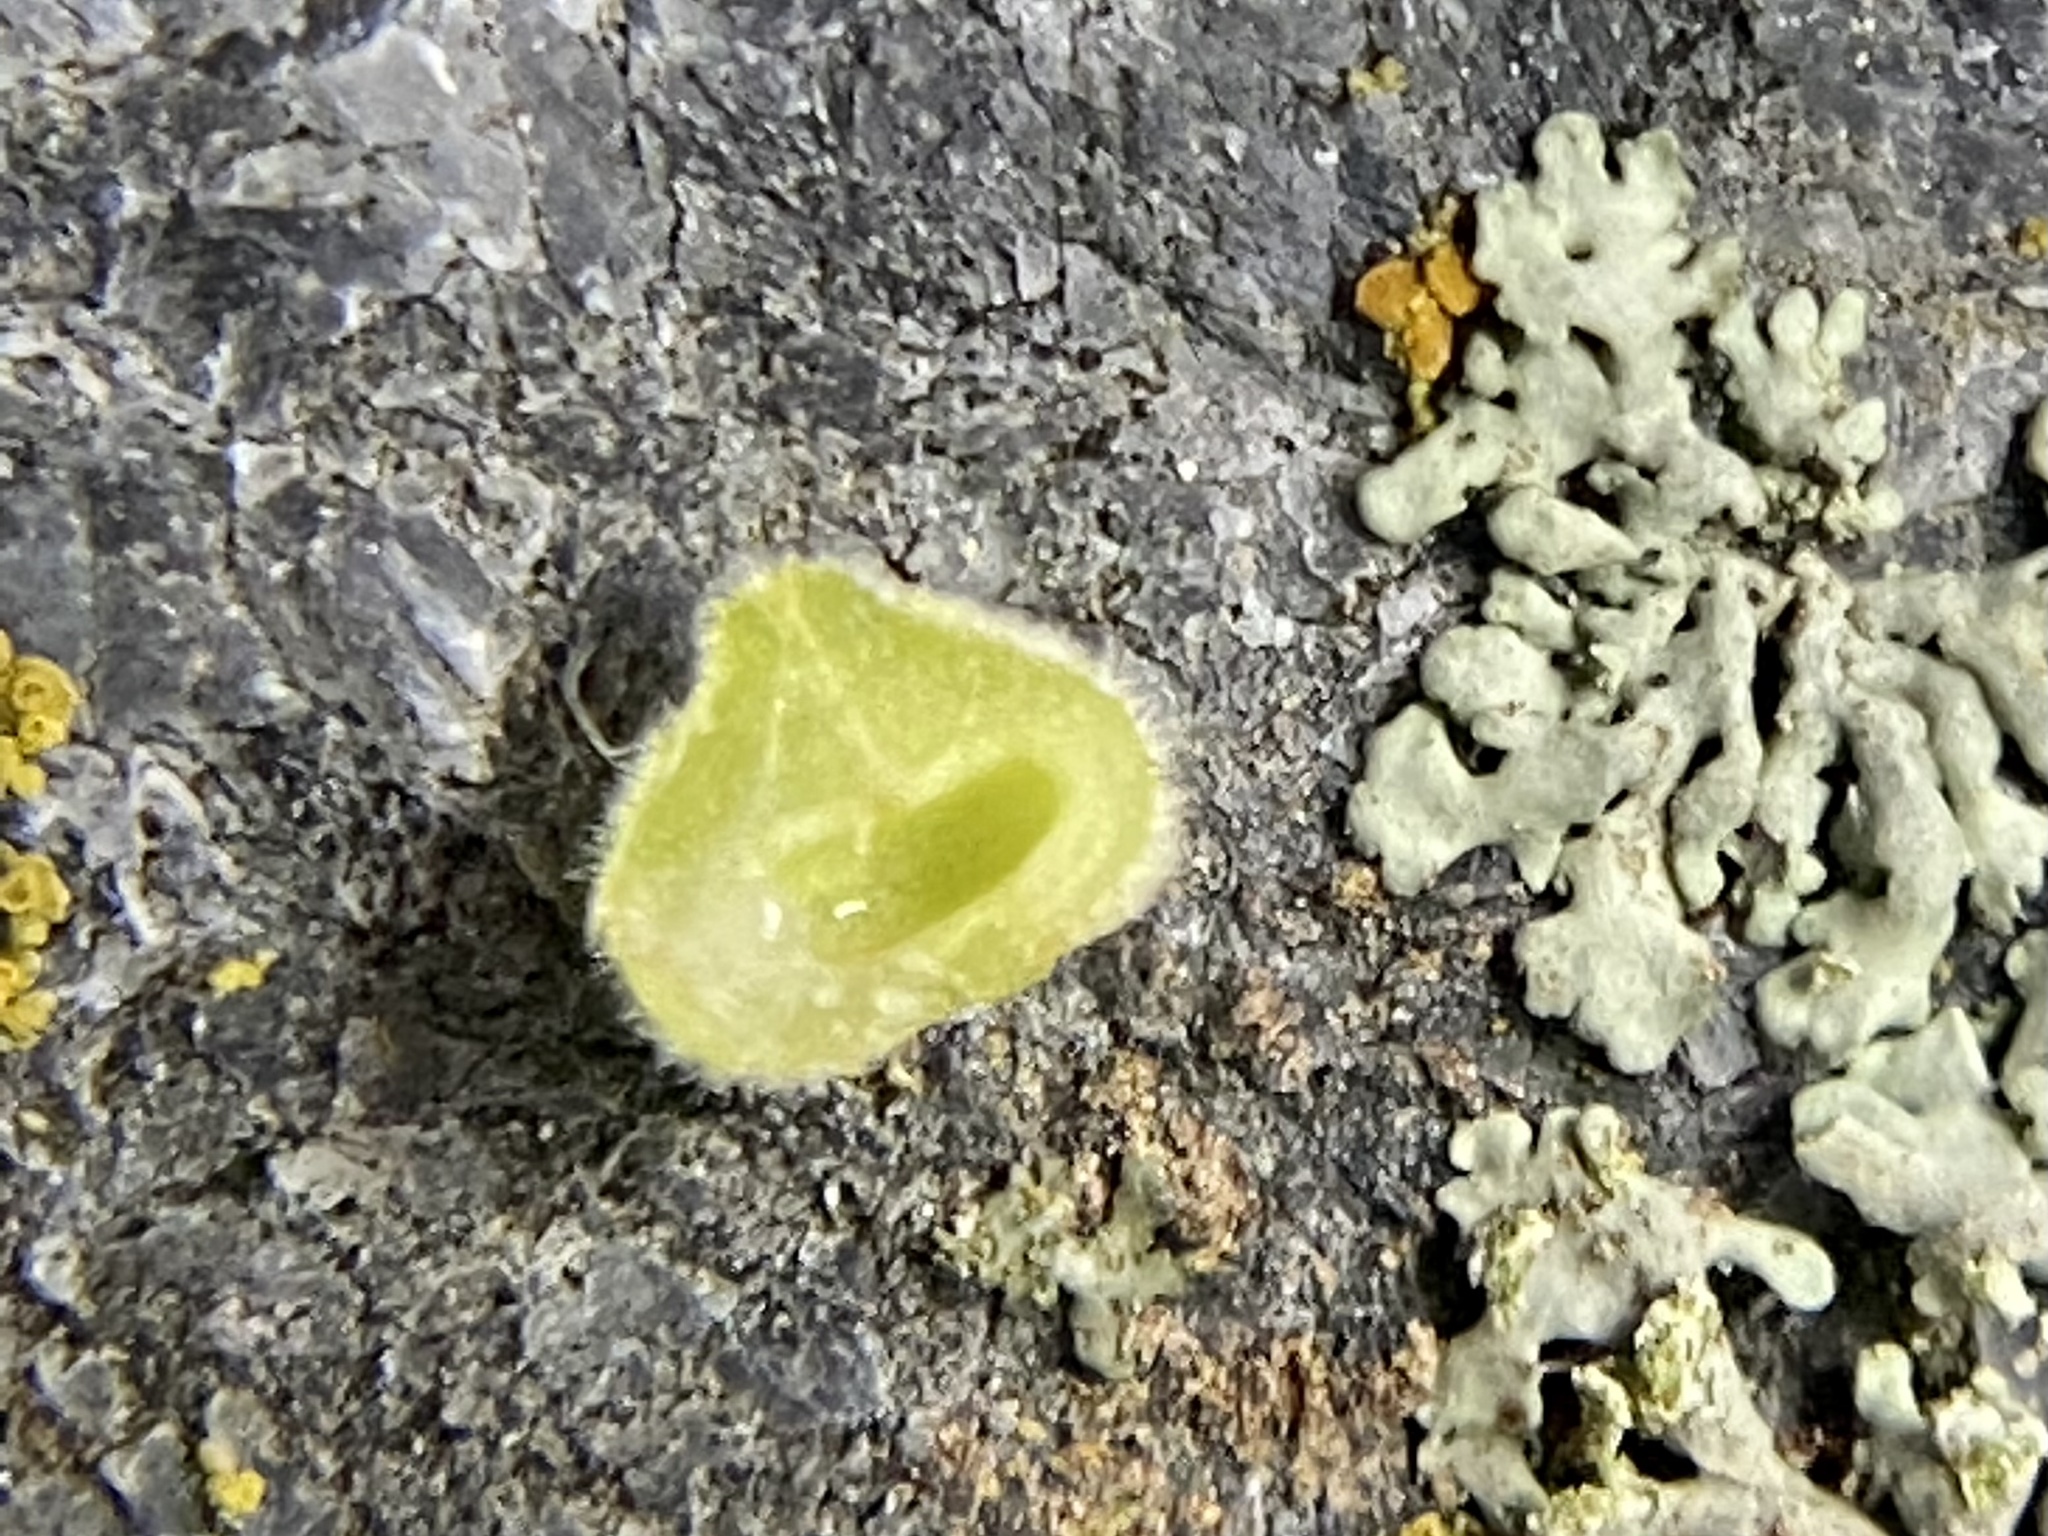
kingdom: Animalia
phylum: Arthropoda
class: Insecta
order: Diptera
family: Cecidomyiidae
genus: Caryomyia
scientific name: Caryomyia conoidea
